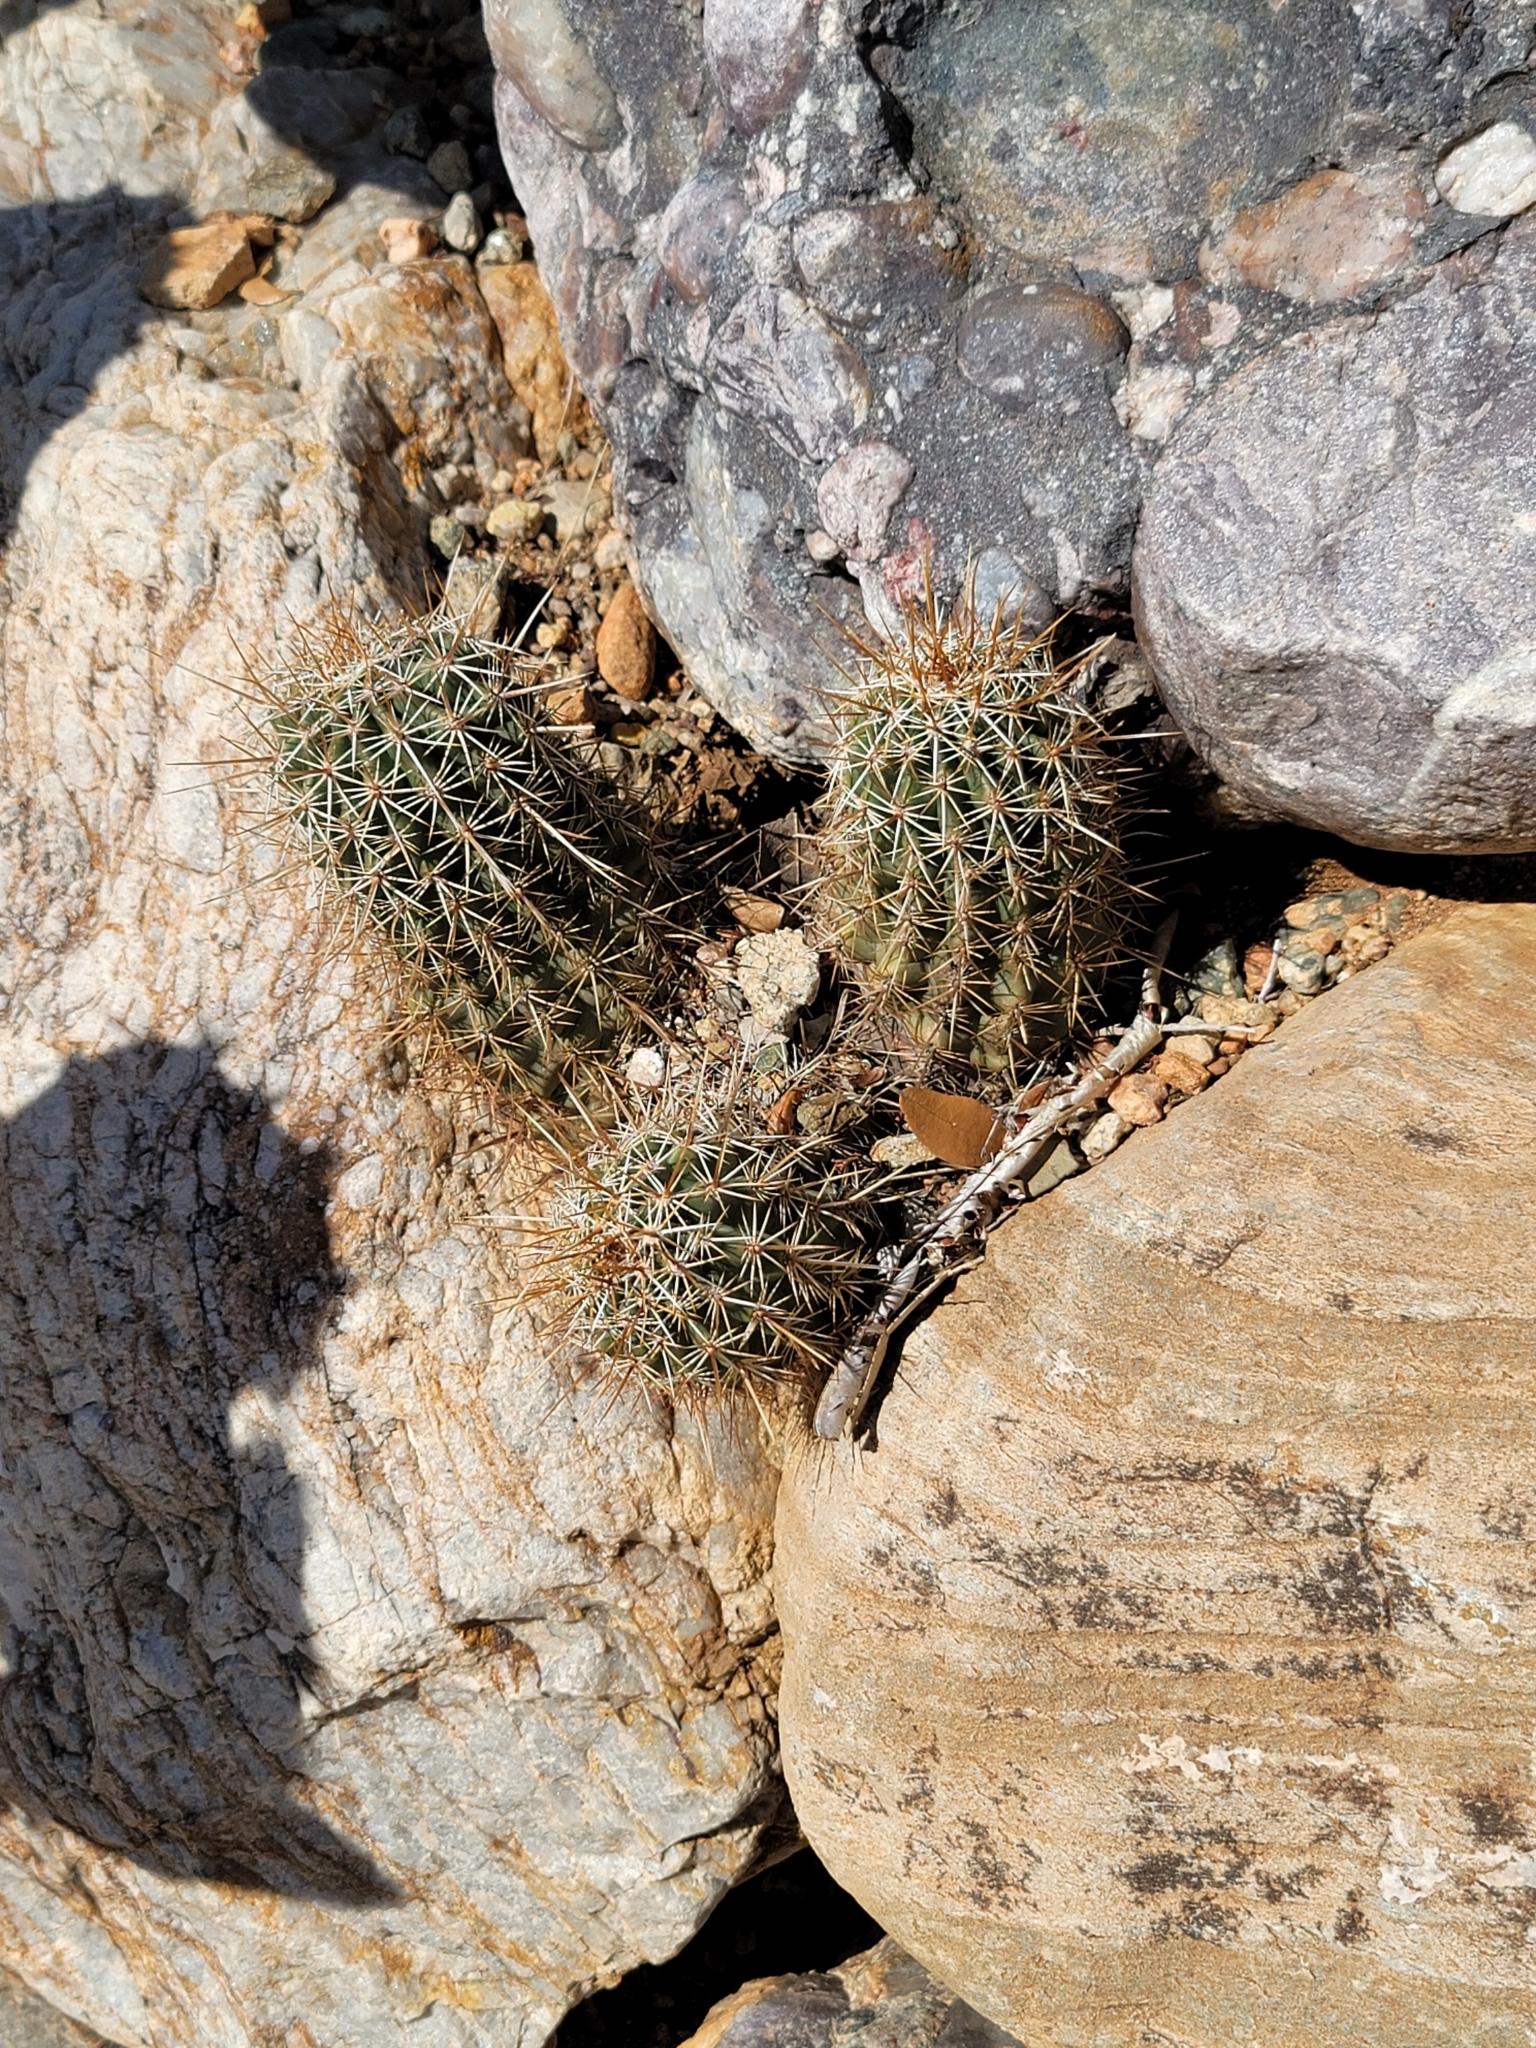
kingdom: Plantae
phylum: Tracheophyta
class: Magnoliopsida
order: Caryophyllales
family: Cactaceae
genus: Echinocereus
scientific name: Echinocereus fasciculatus
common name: Bundle hedgehog
